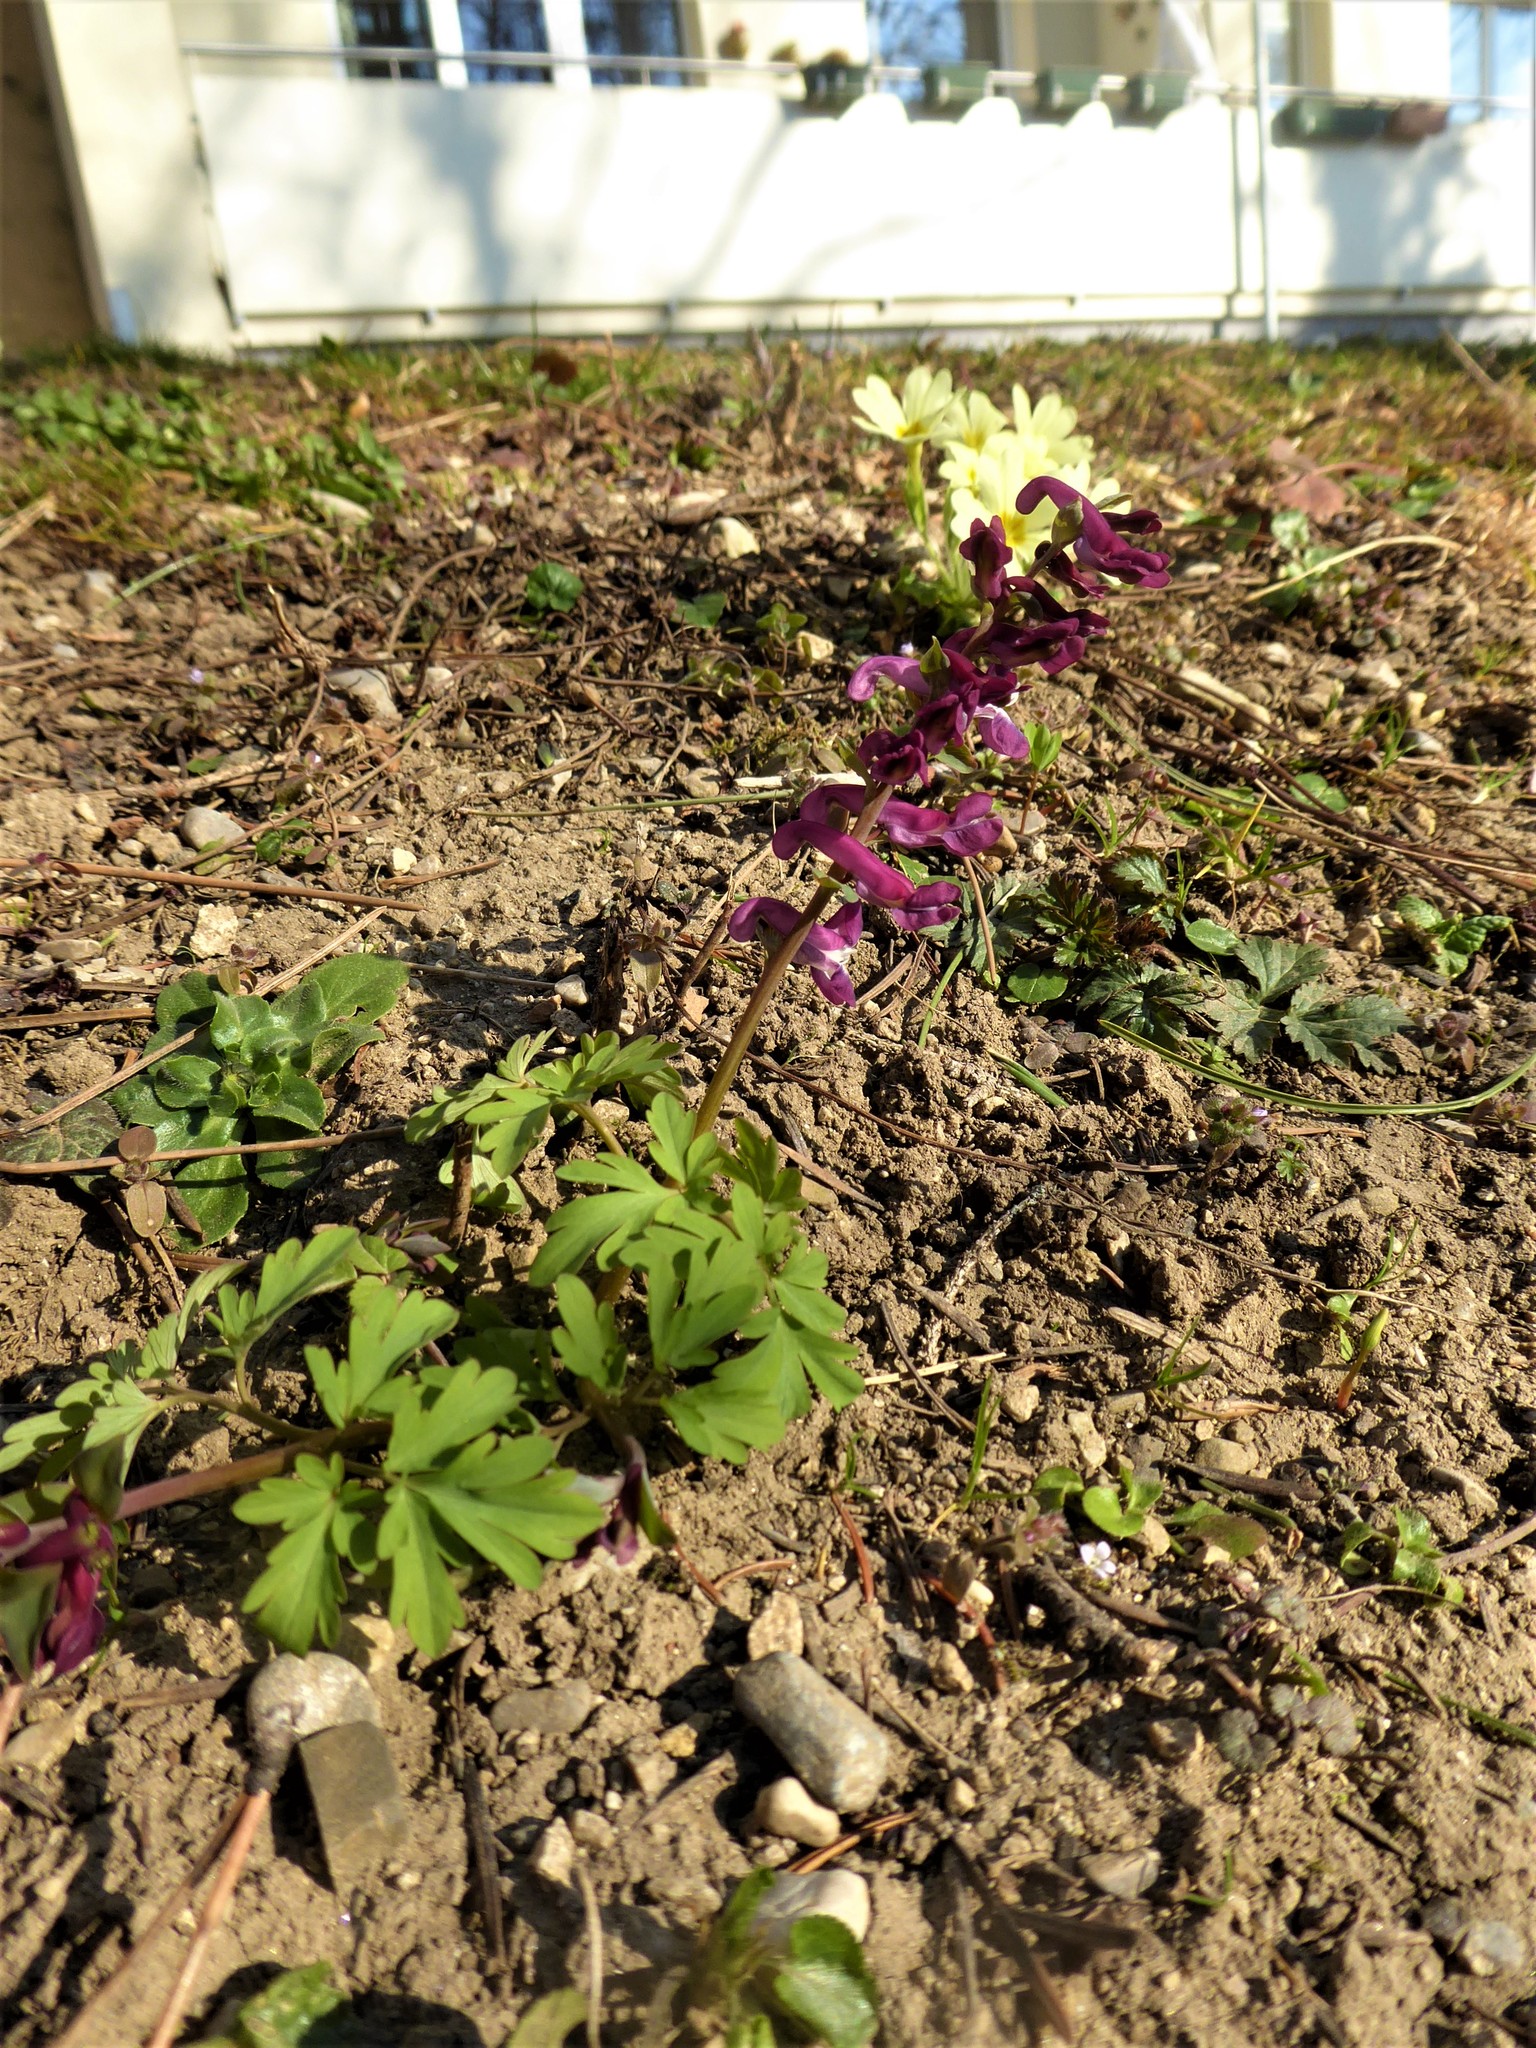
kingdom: Plantae
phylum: Tracheophyta
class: Magnoliopsida
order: Ranunculales
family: Papaveraceae
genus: Corydalis
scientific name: Corydalis cava
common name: Hollowroot
